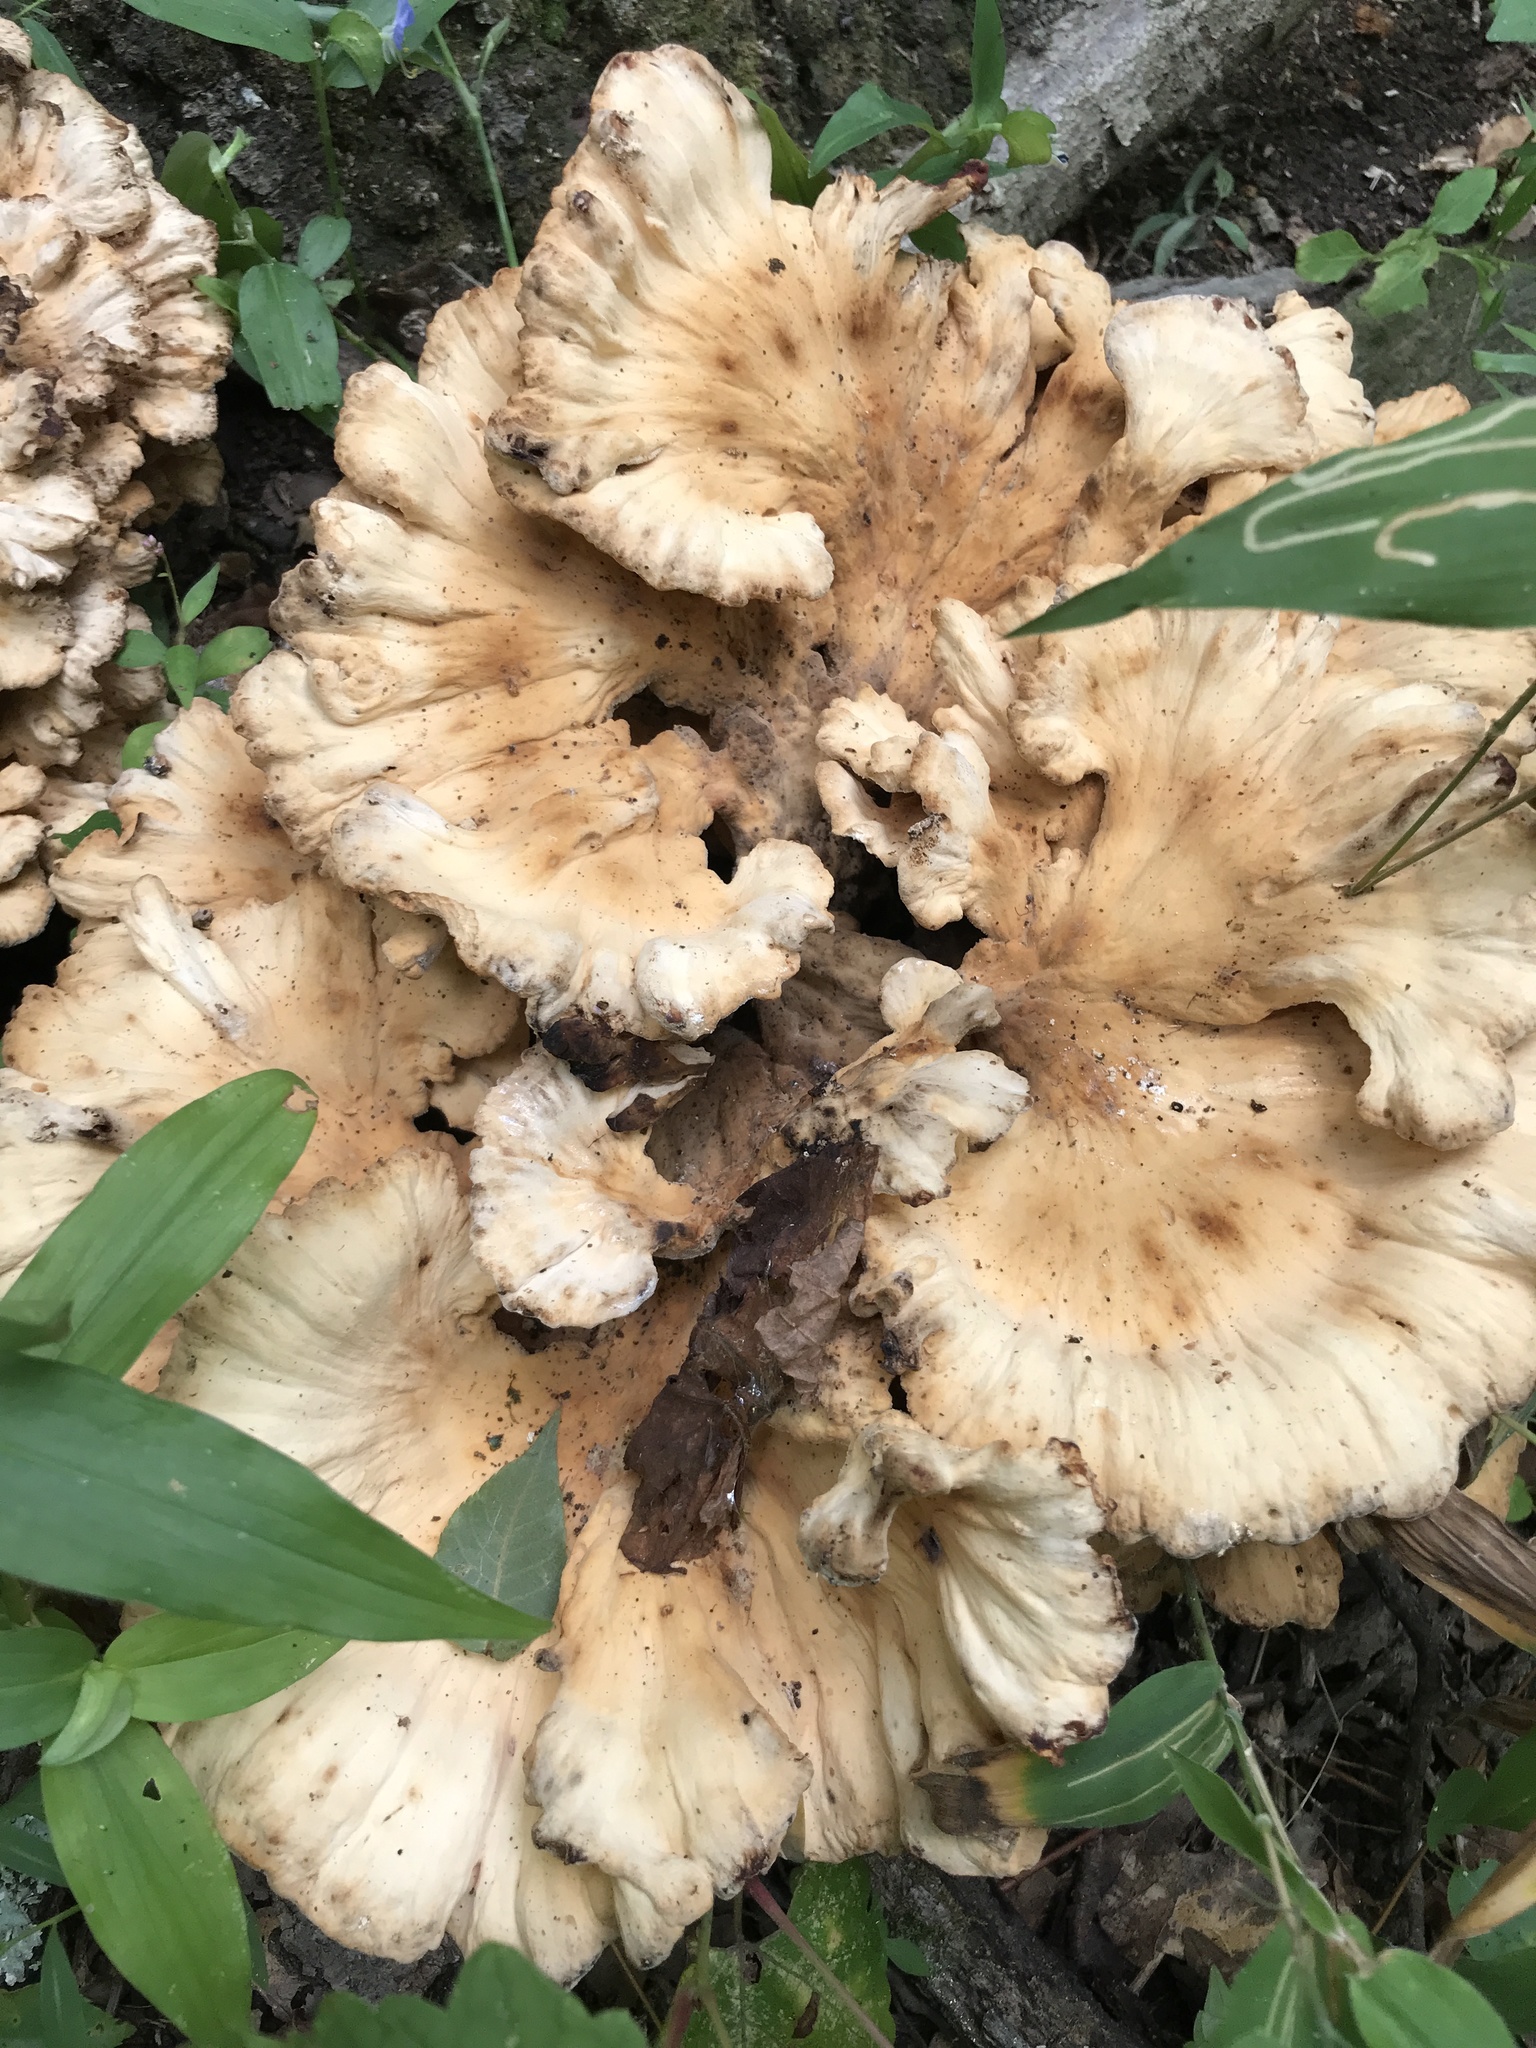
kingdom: Fungi
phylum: Basidiomycota
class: Agaricomycetes
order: Polyporales
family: Meripilaceae
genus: Meripilus
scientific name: Meripilus sumstinei
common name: Black-staining polypore
